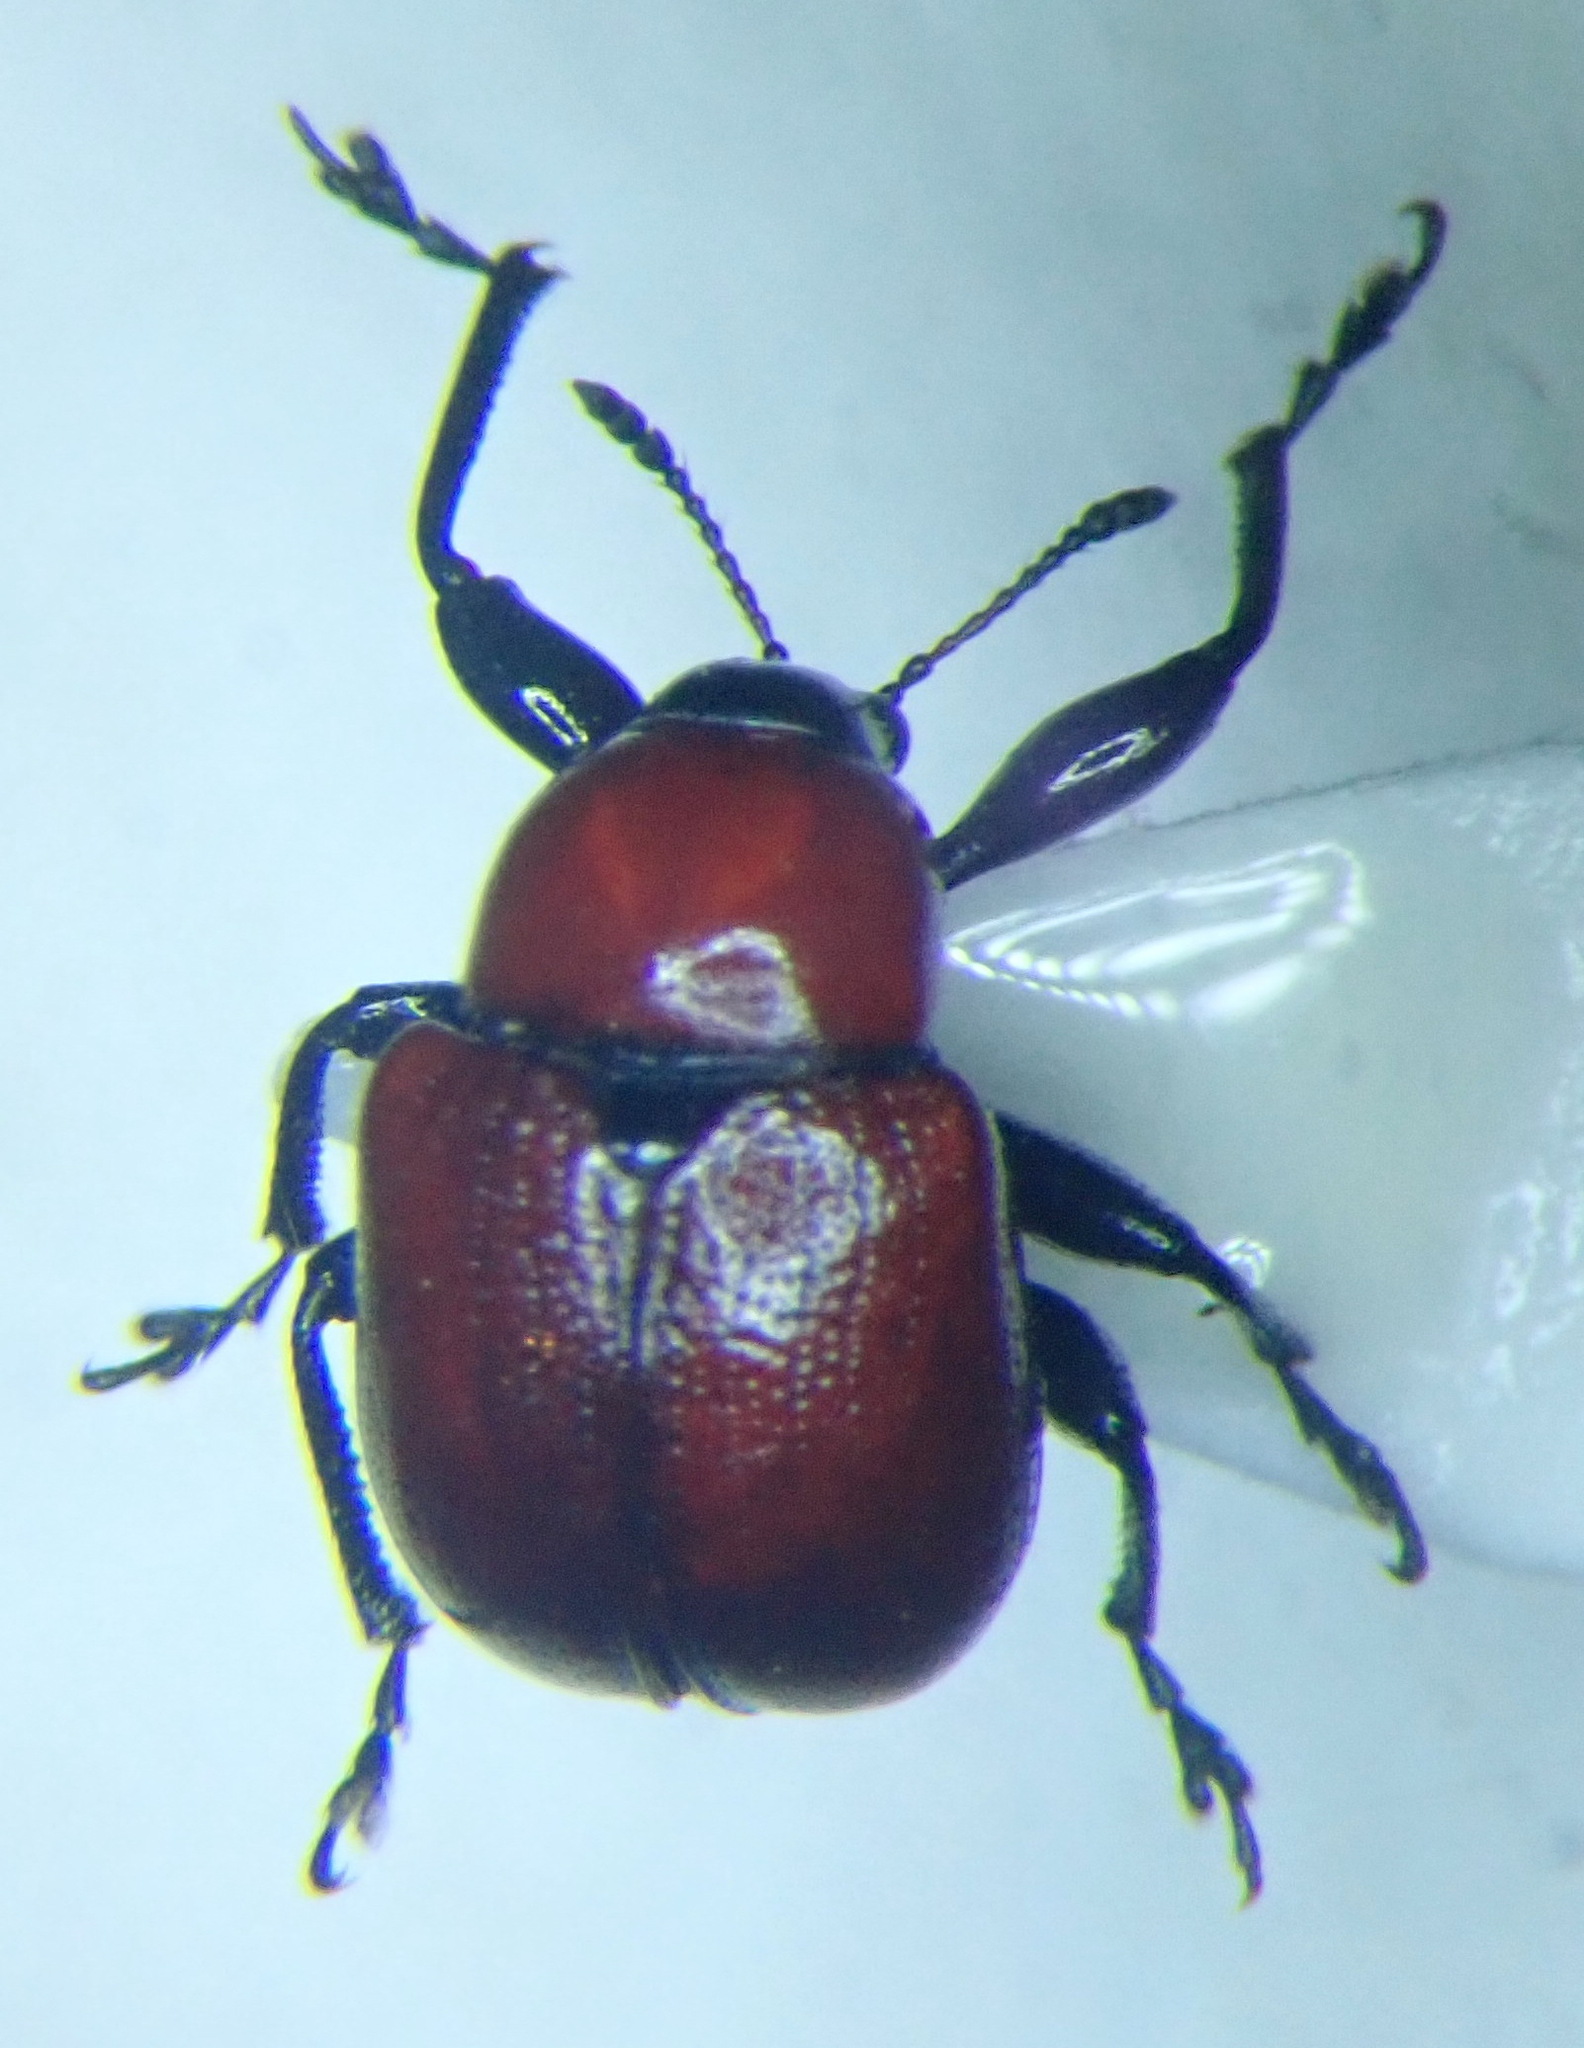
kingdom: Animalia
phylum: Arthropoda
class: Insecta
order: Coleoptera
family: Attelabidae
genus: Attelabus
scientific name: Attelabus nitens
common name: Oak leaf-roller
